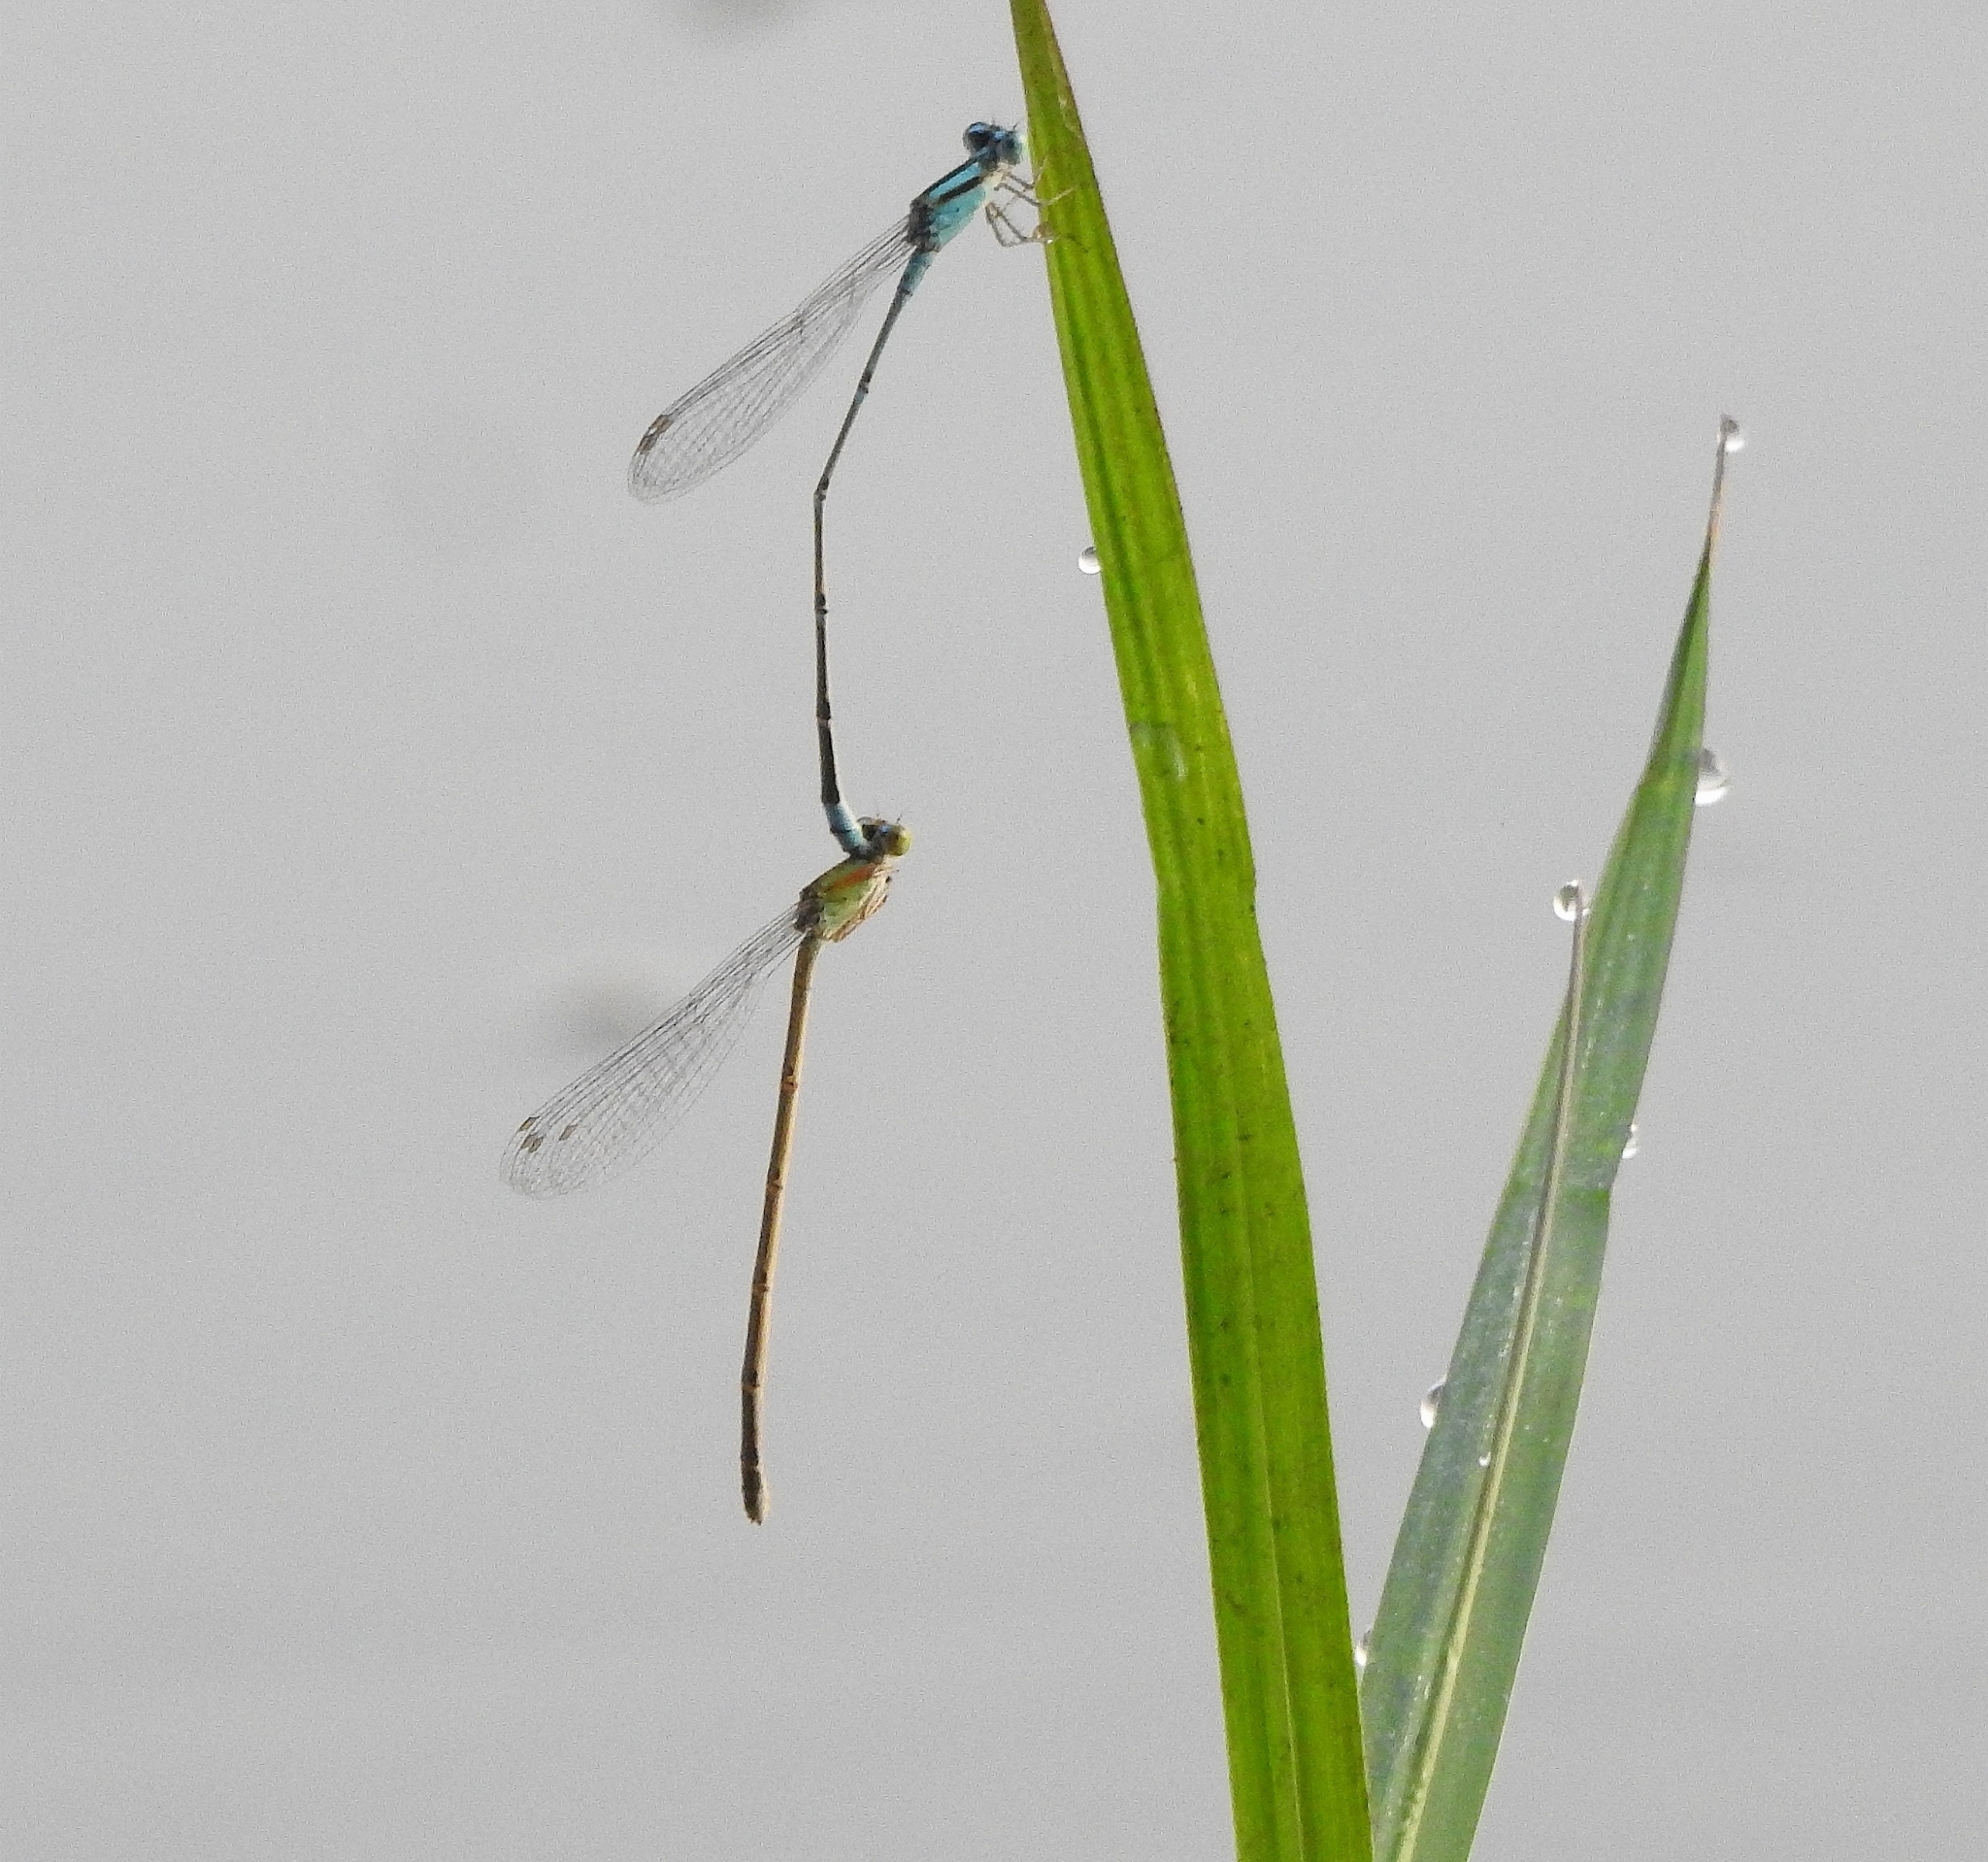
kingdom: Animalia
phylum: Arthropoda
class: Insecta
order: Odonata
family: Coenagrionidae
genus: Pseudagrion
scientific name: Pseudagrion microcephalum
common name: Blue riverdamsel
